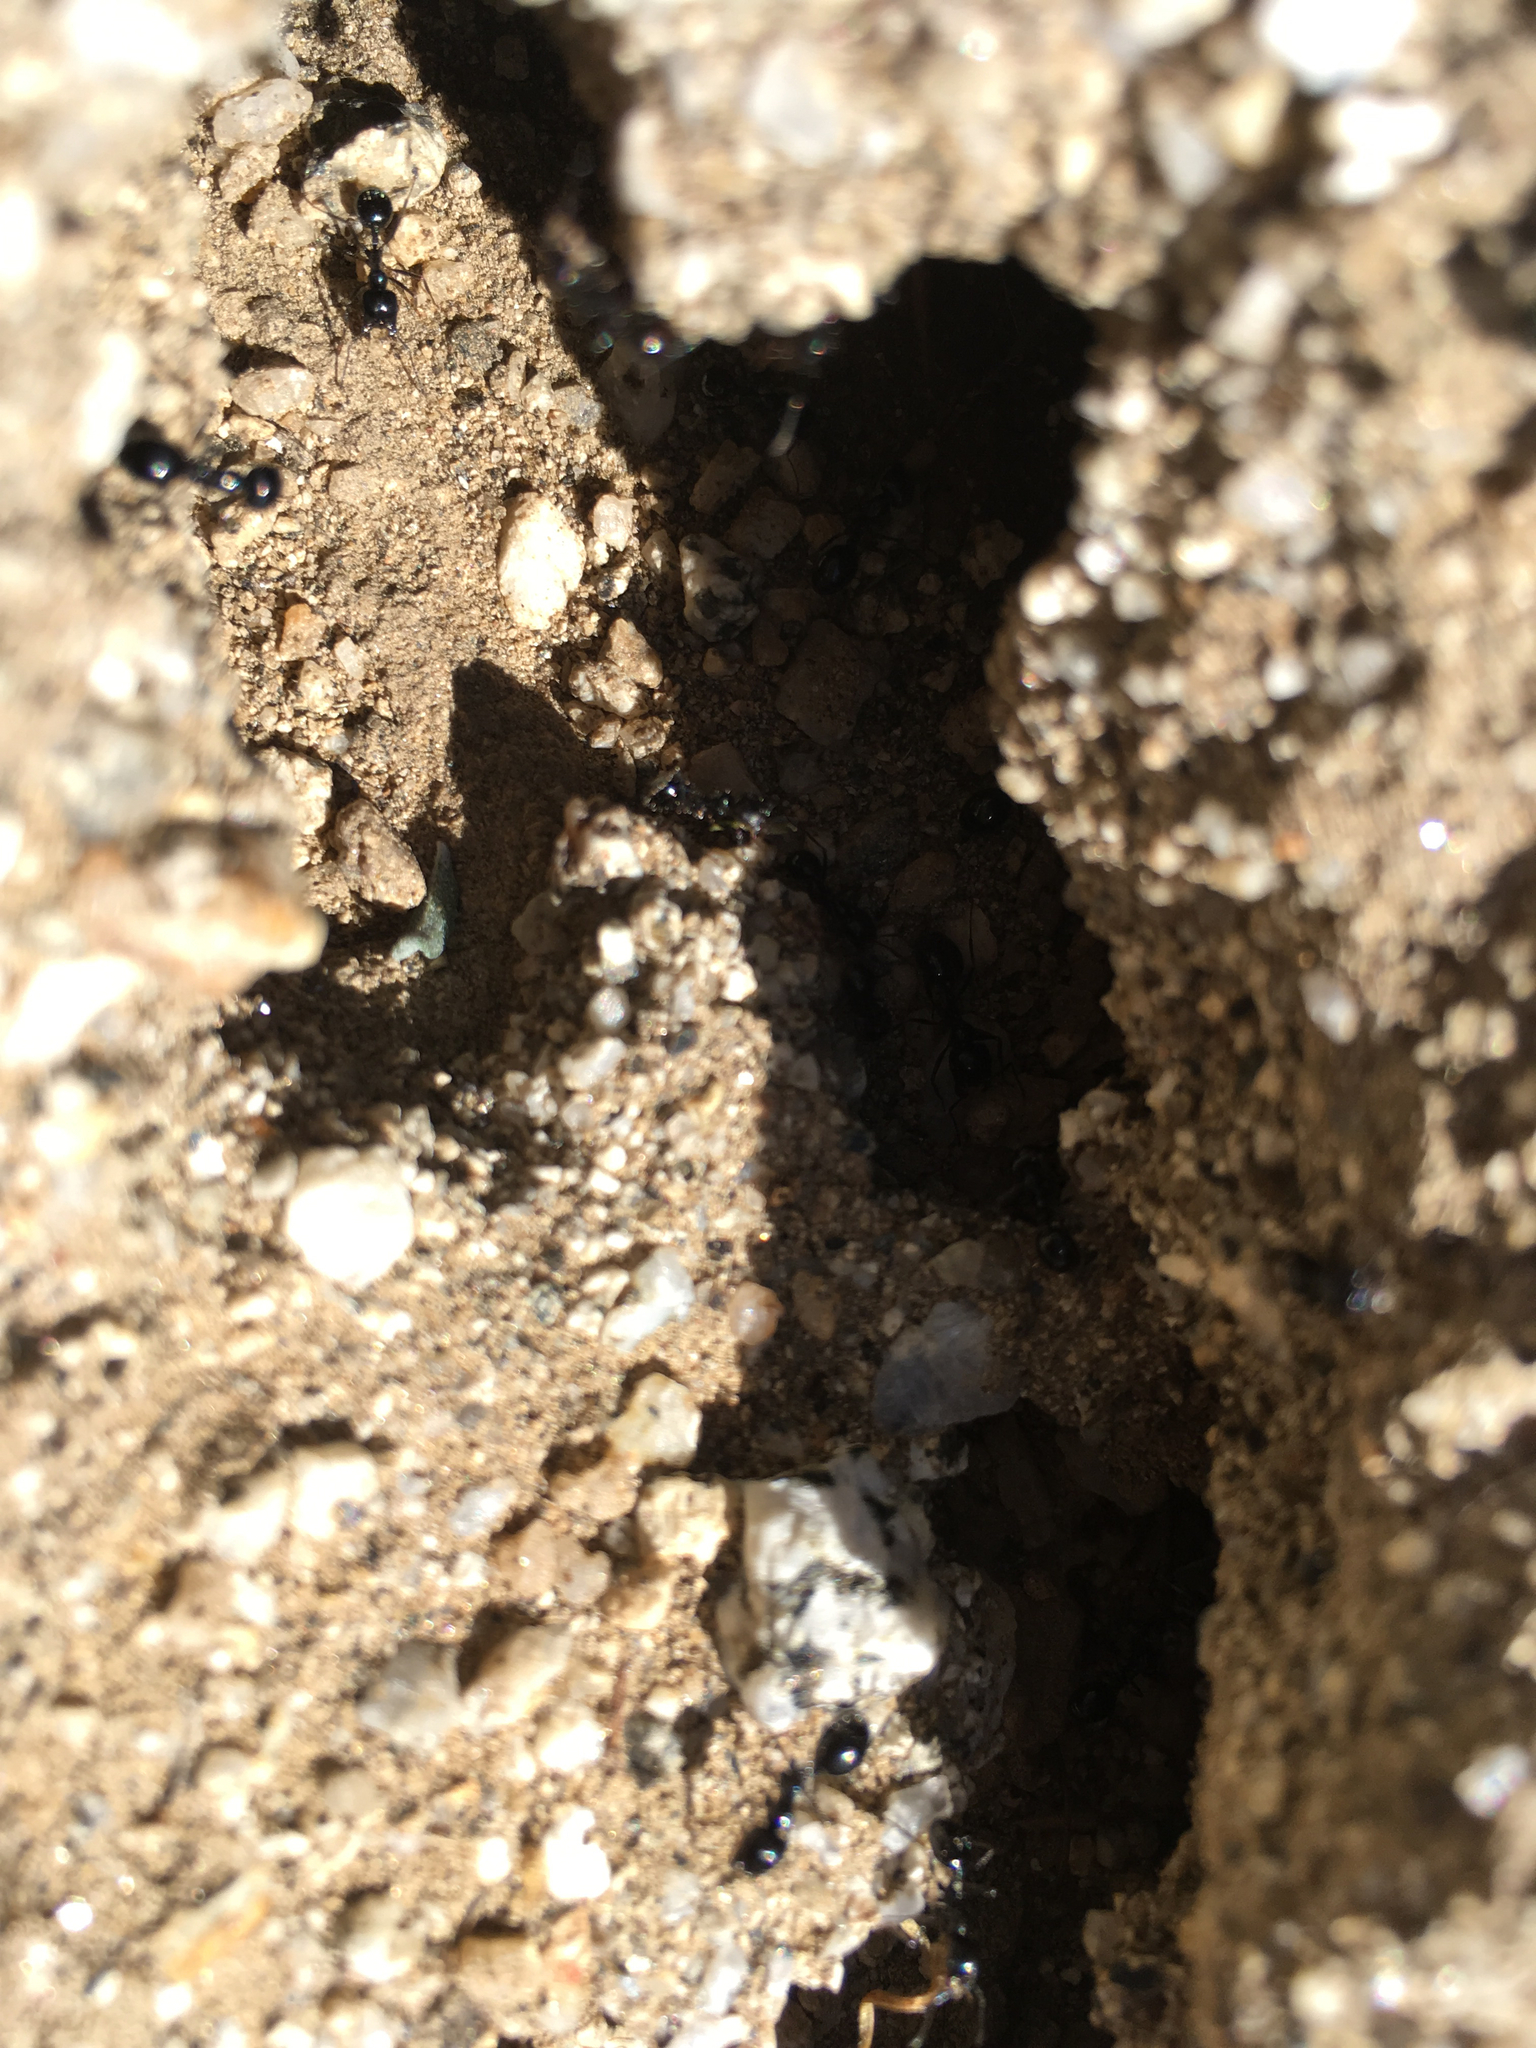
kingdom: Animalia
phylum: Arthropoda
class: Insecta
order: Hymenoptera
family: Formicidae
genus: Messor
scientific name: Messor pergandei
